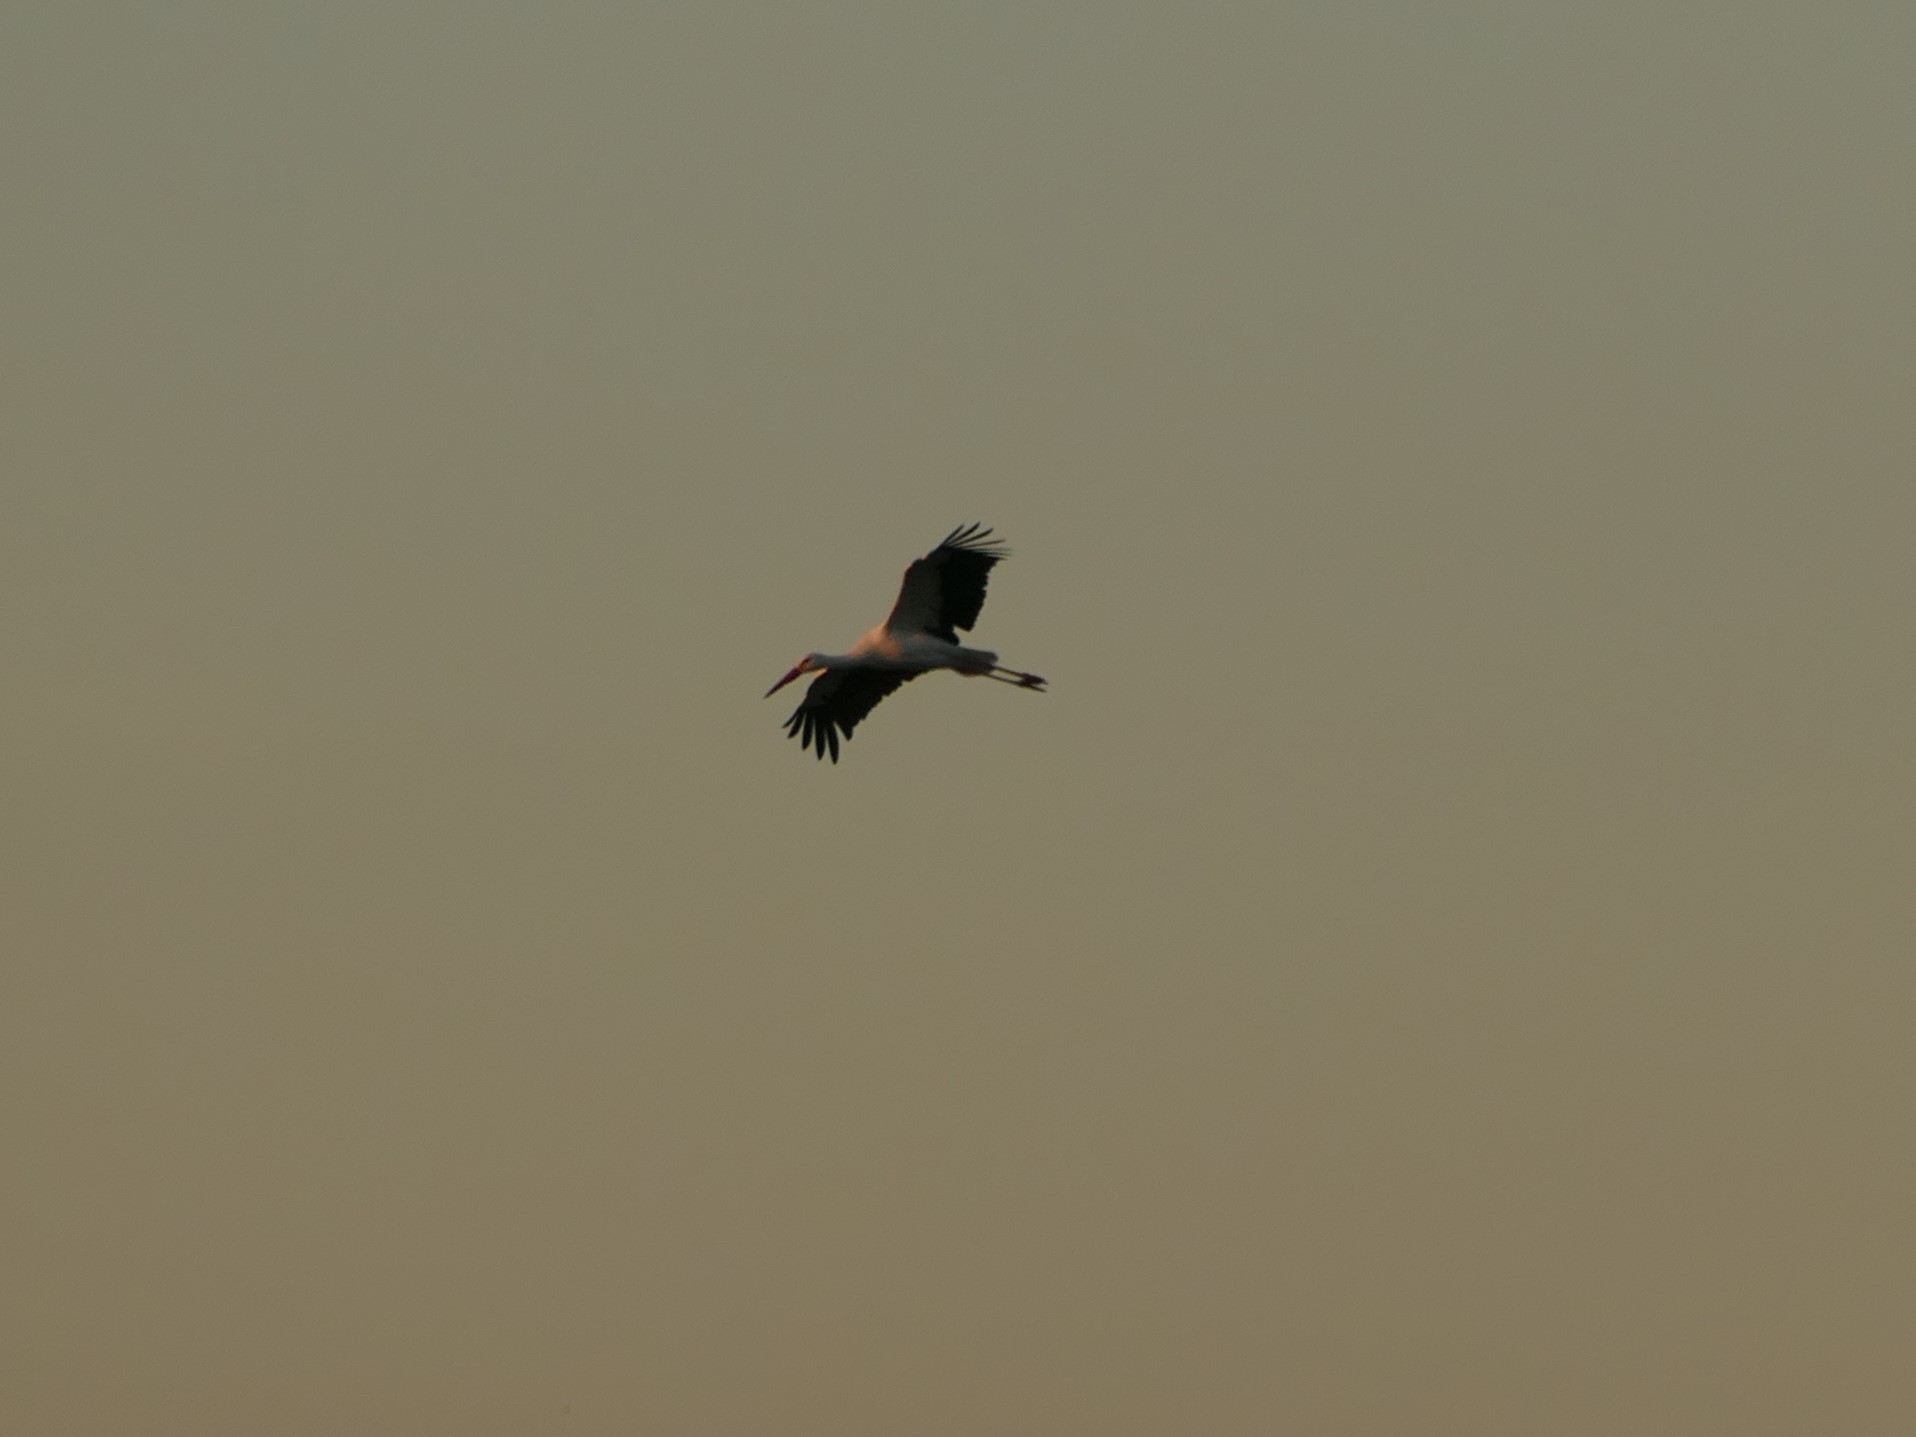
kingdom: Animalia
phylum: Chordata
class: Aves
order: Ciconiiformes
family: Ciconiidae
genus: Ciconia
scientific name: Ciconia ciconia
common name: White stork
